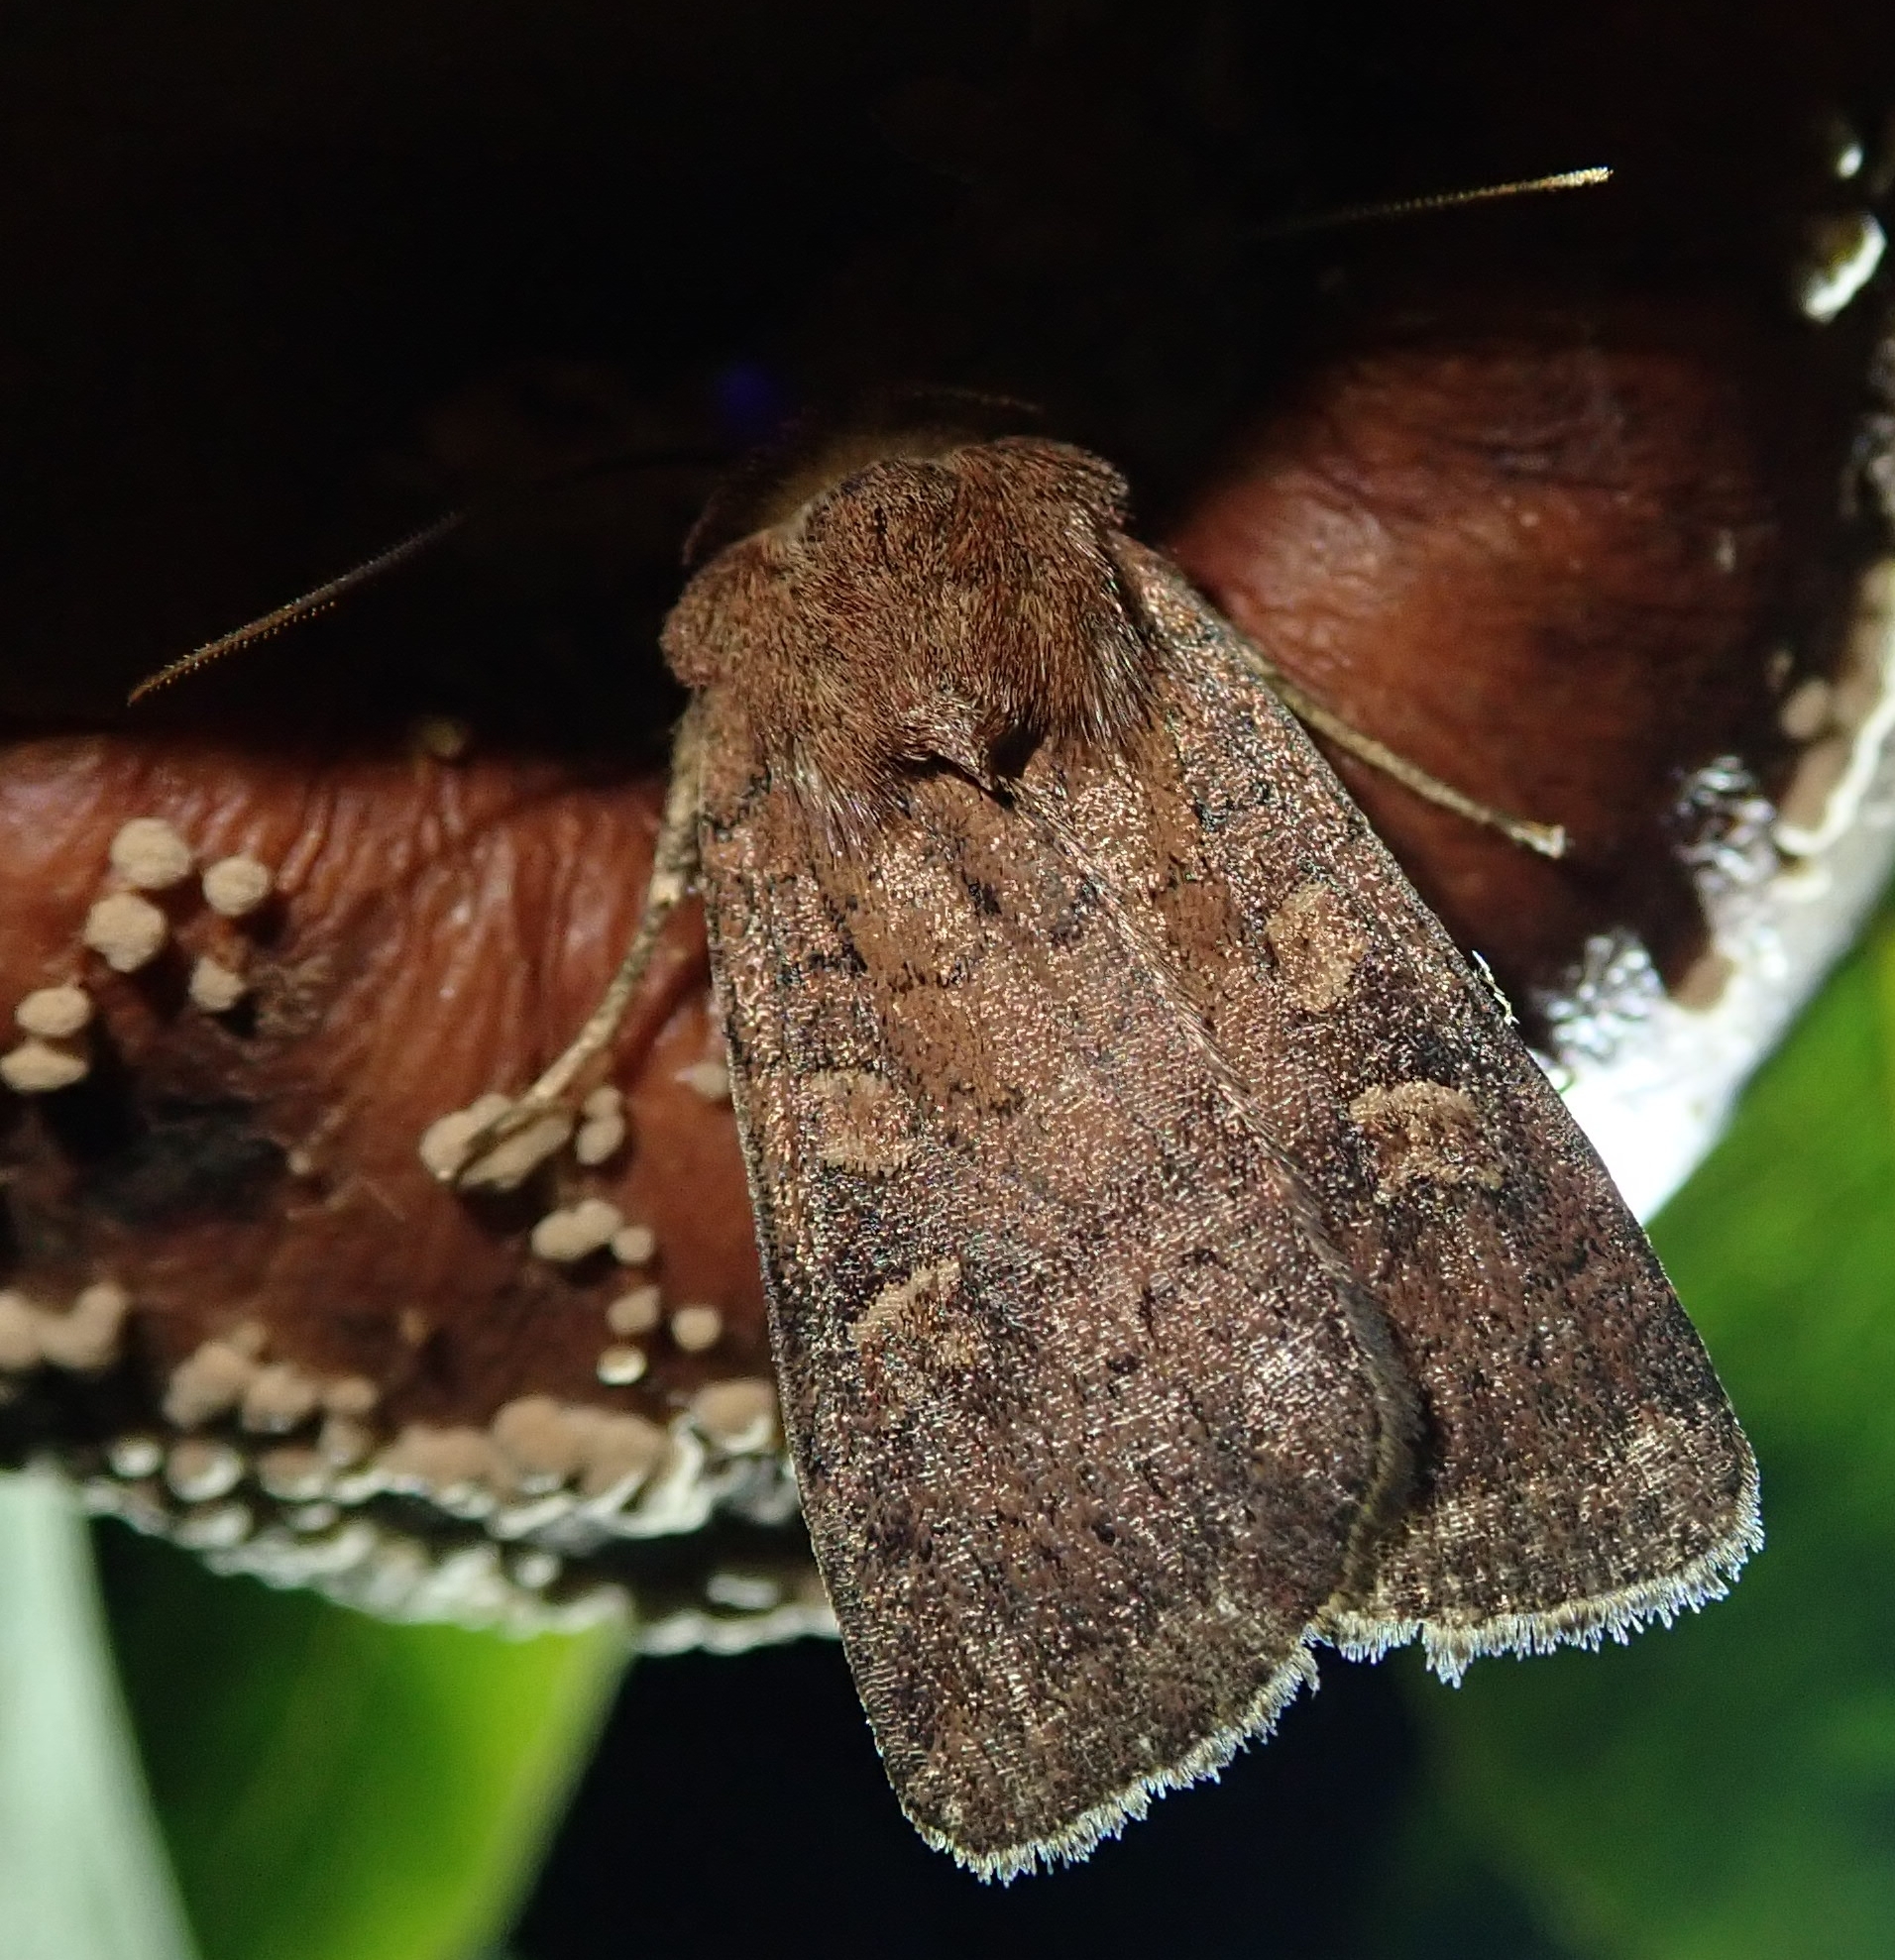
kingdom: Animalia
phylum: Arthropoda
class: Insecta
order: Lepidoptera
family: Noctuidae
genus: Xestia
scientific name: Xestia xanthographa
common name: Square-spot rustic
